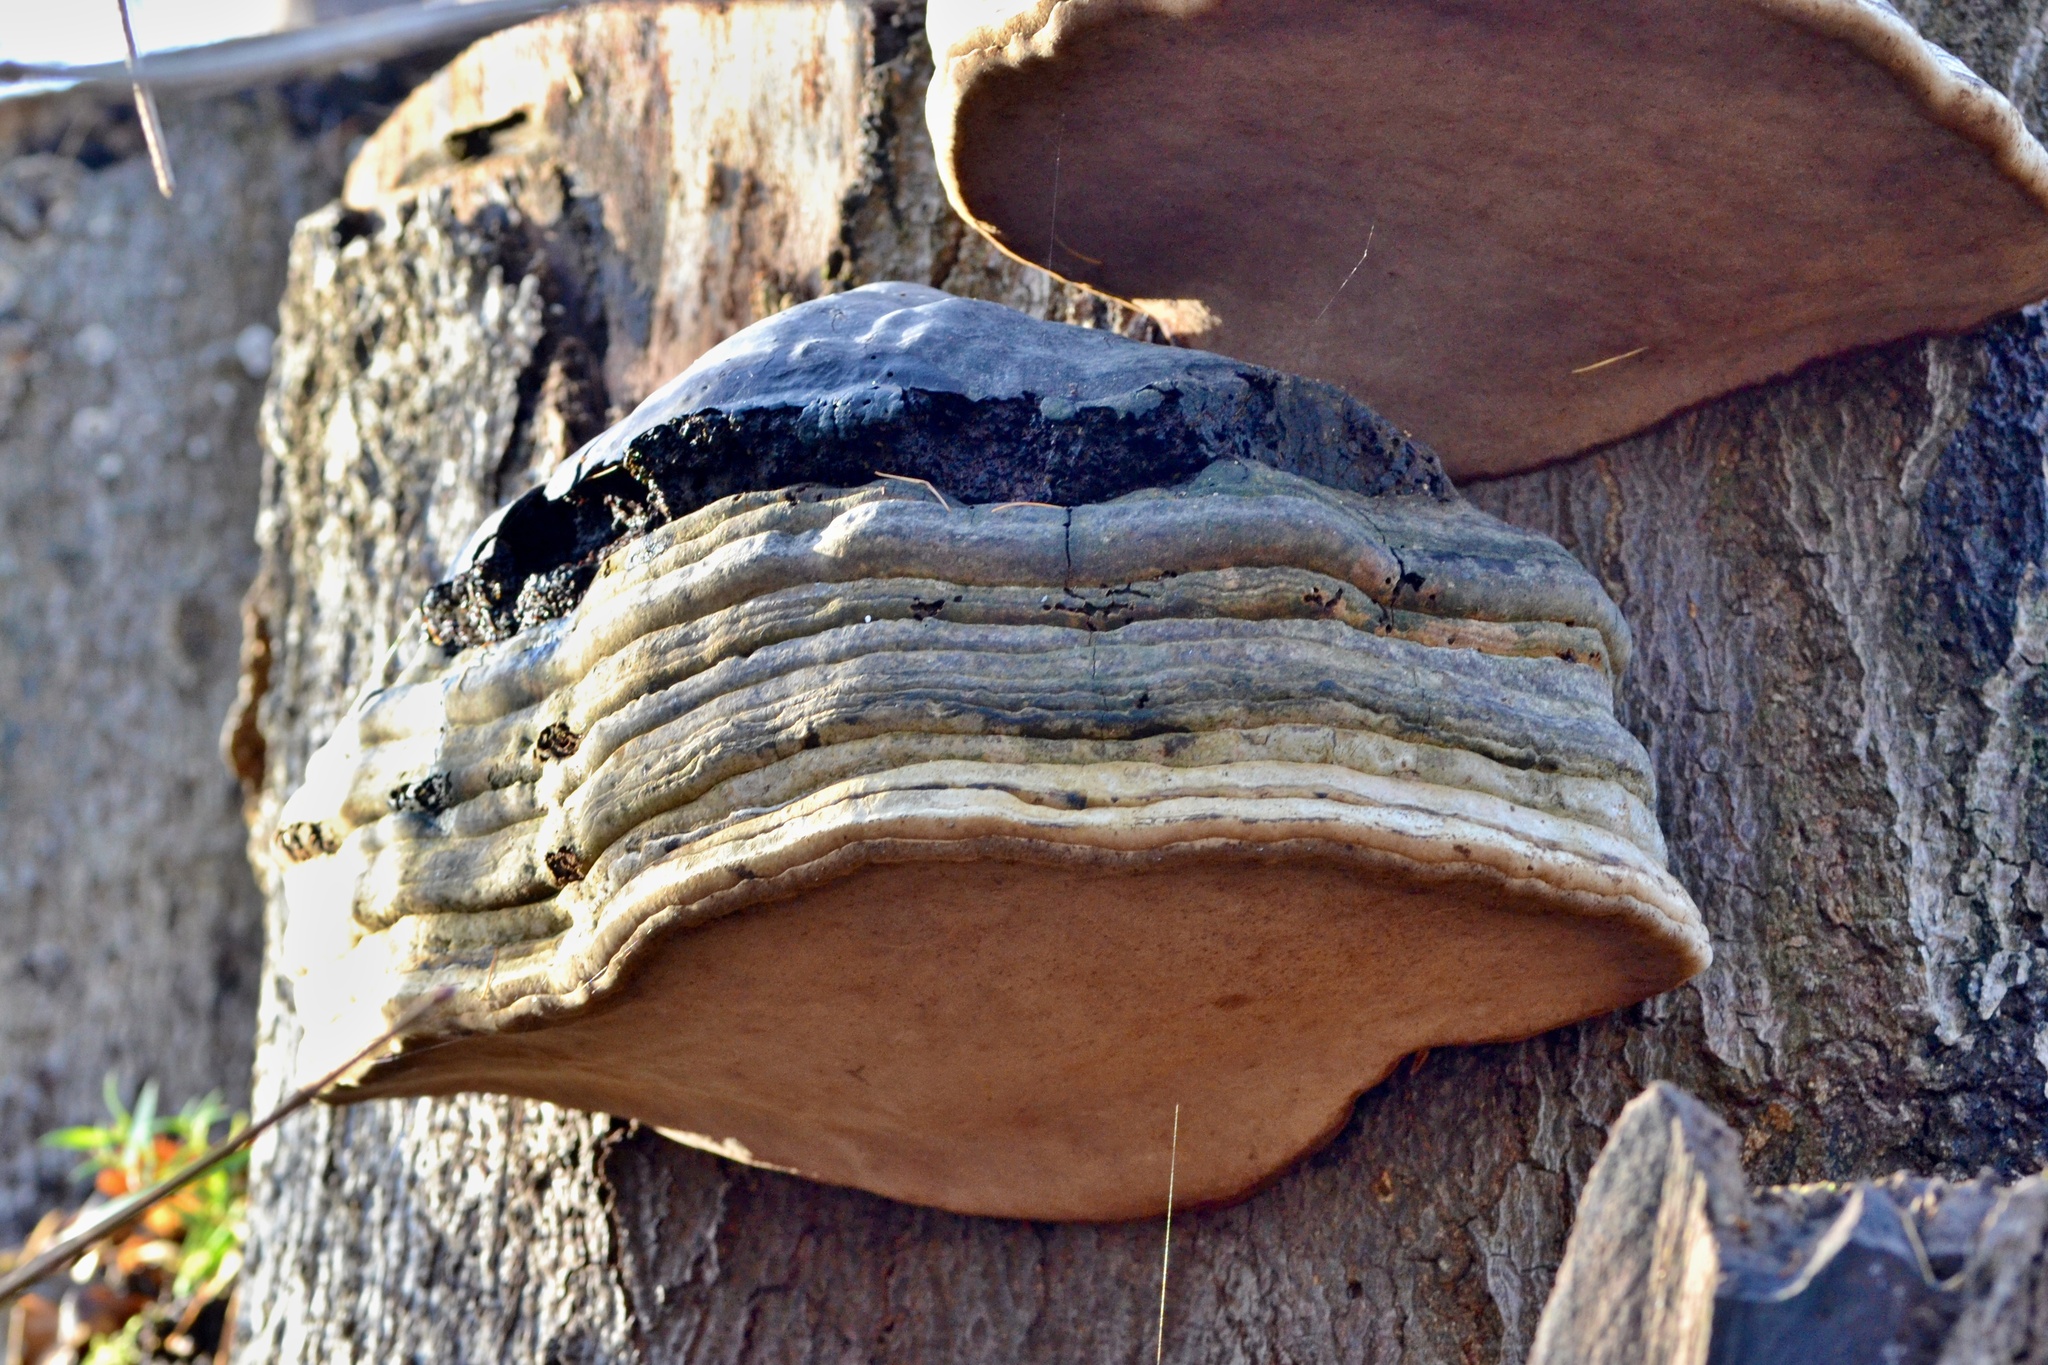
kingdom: Fungi
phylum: Basidiomycota
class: Agaricomycetes
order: Polyporales
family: Polyporaceae
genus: Fomes
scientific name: Fomes fomentarius
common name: Hoof fungus
